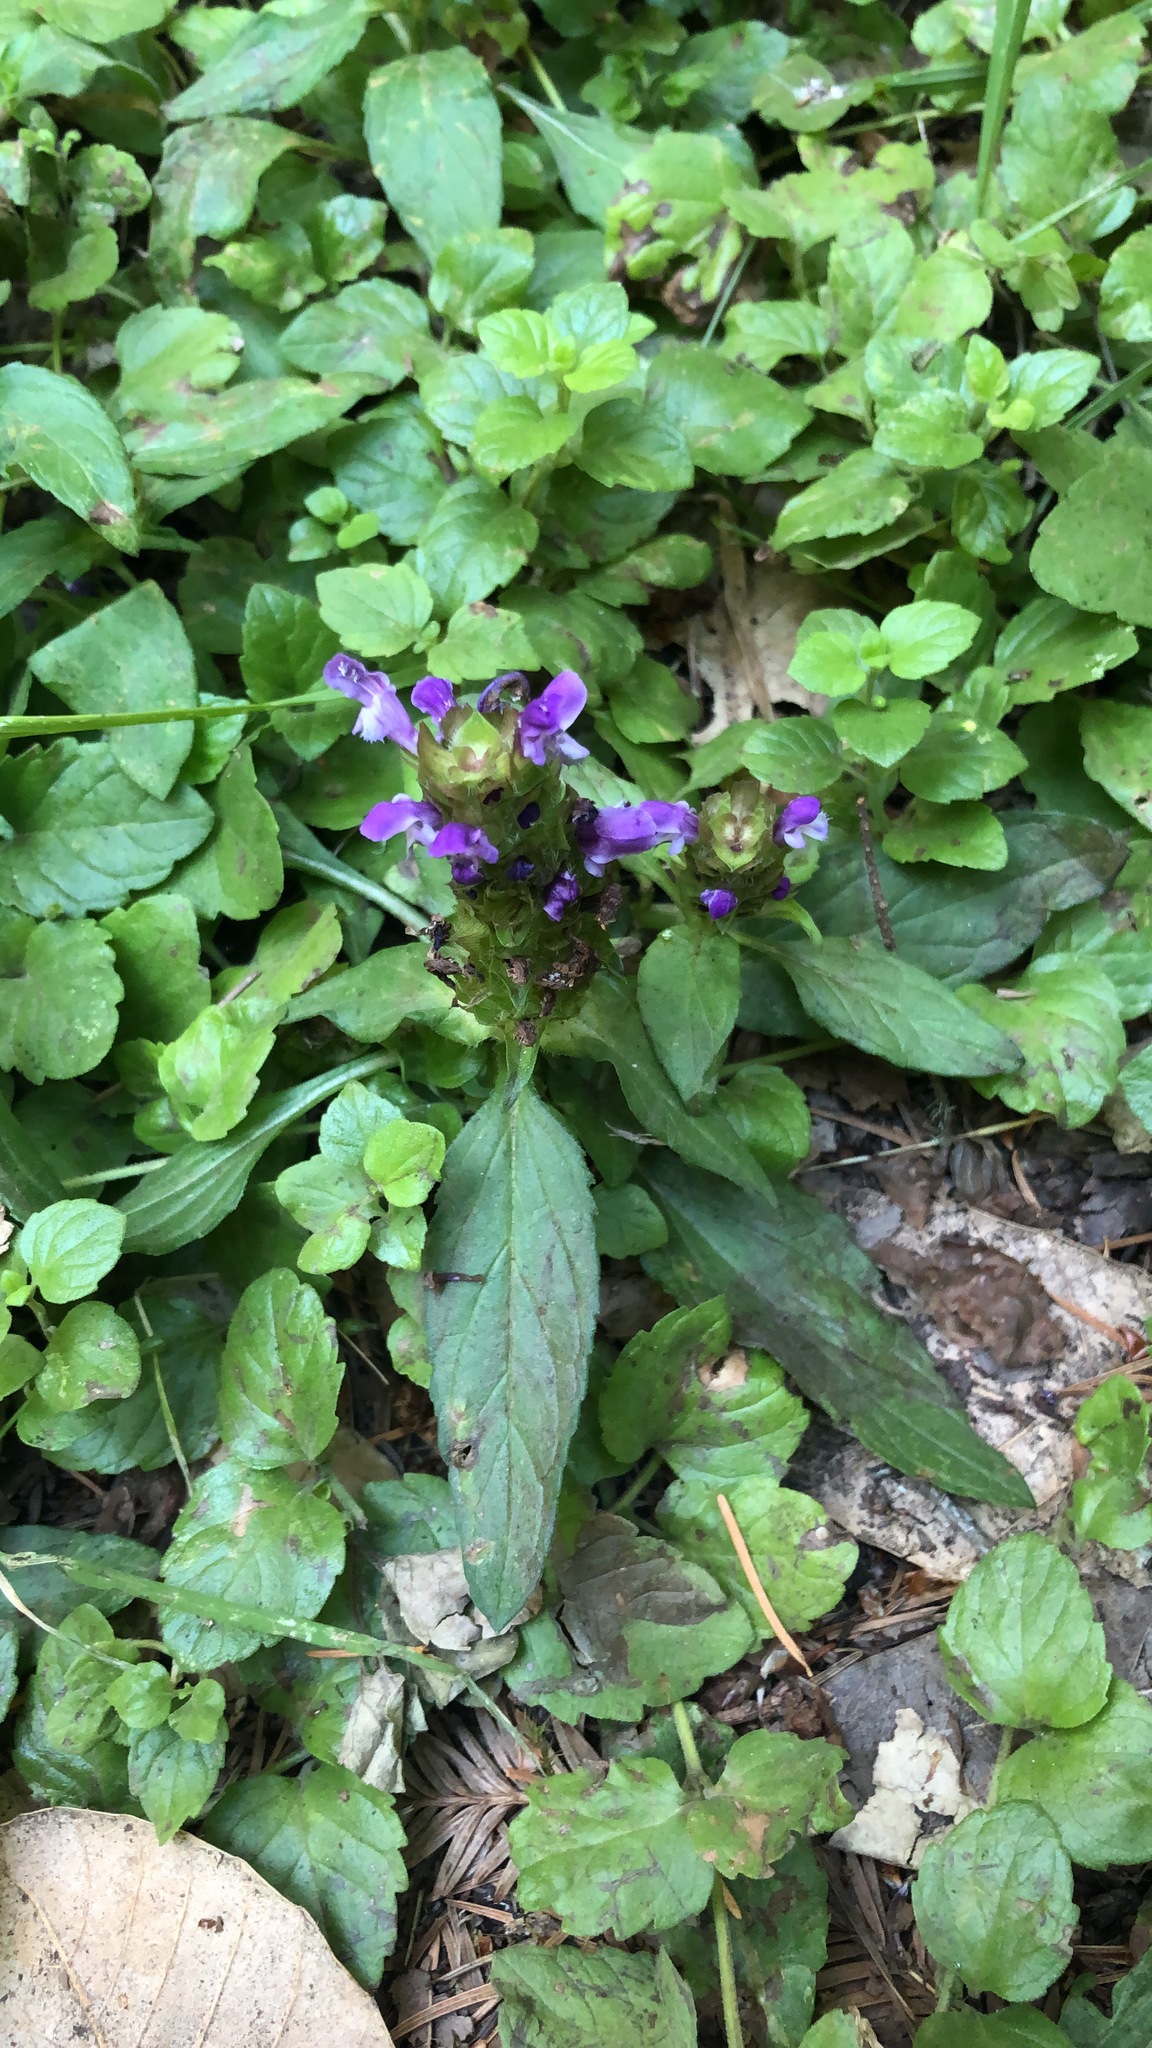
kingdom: Plantae
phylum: Tracheophyta
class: Magnoliopsida
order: Lamiales
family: Lamiaceae
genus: Prunella
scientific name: Prunella vulgaris
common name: Heal-all
